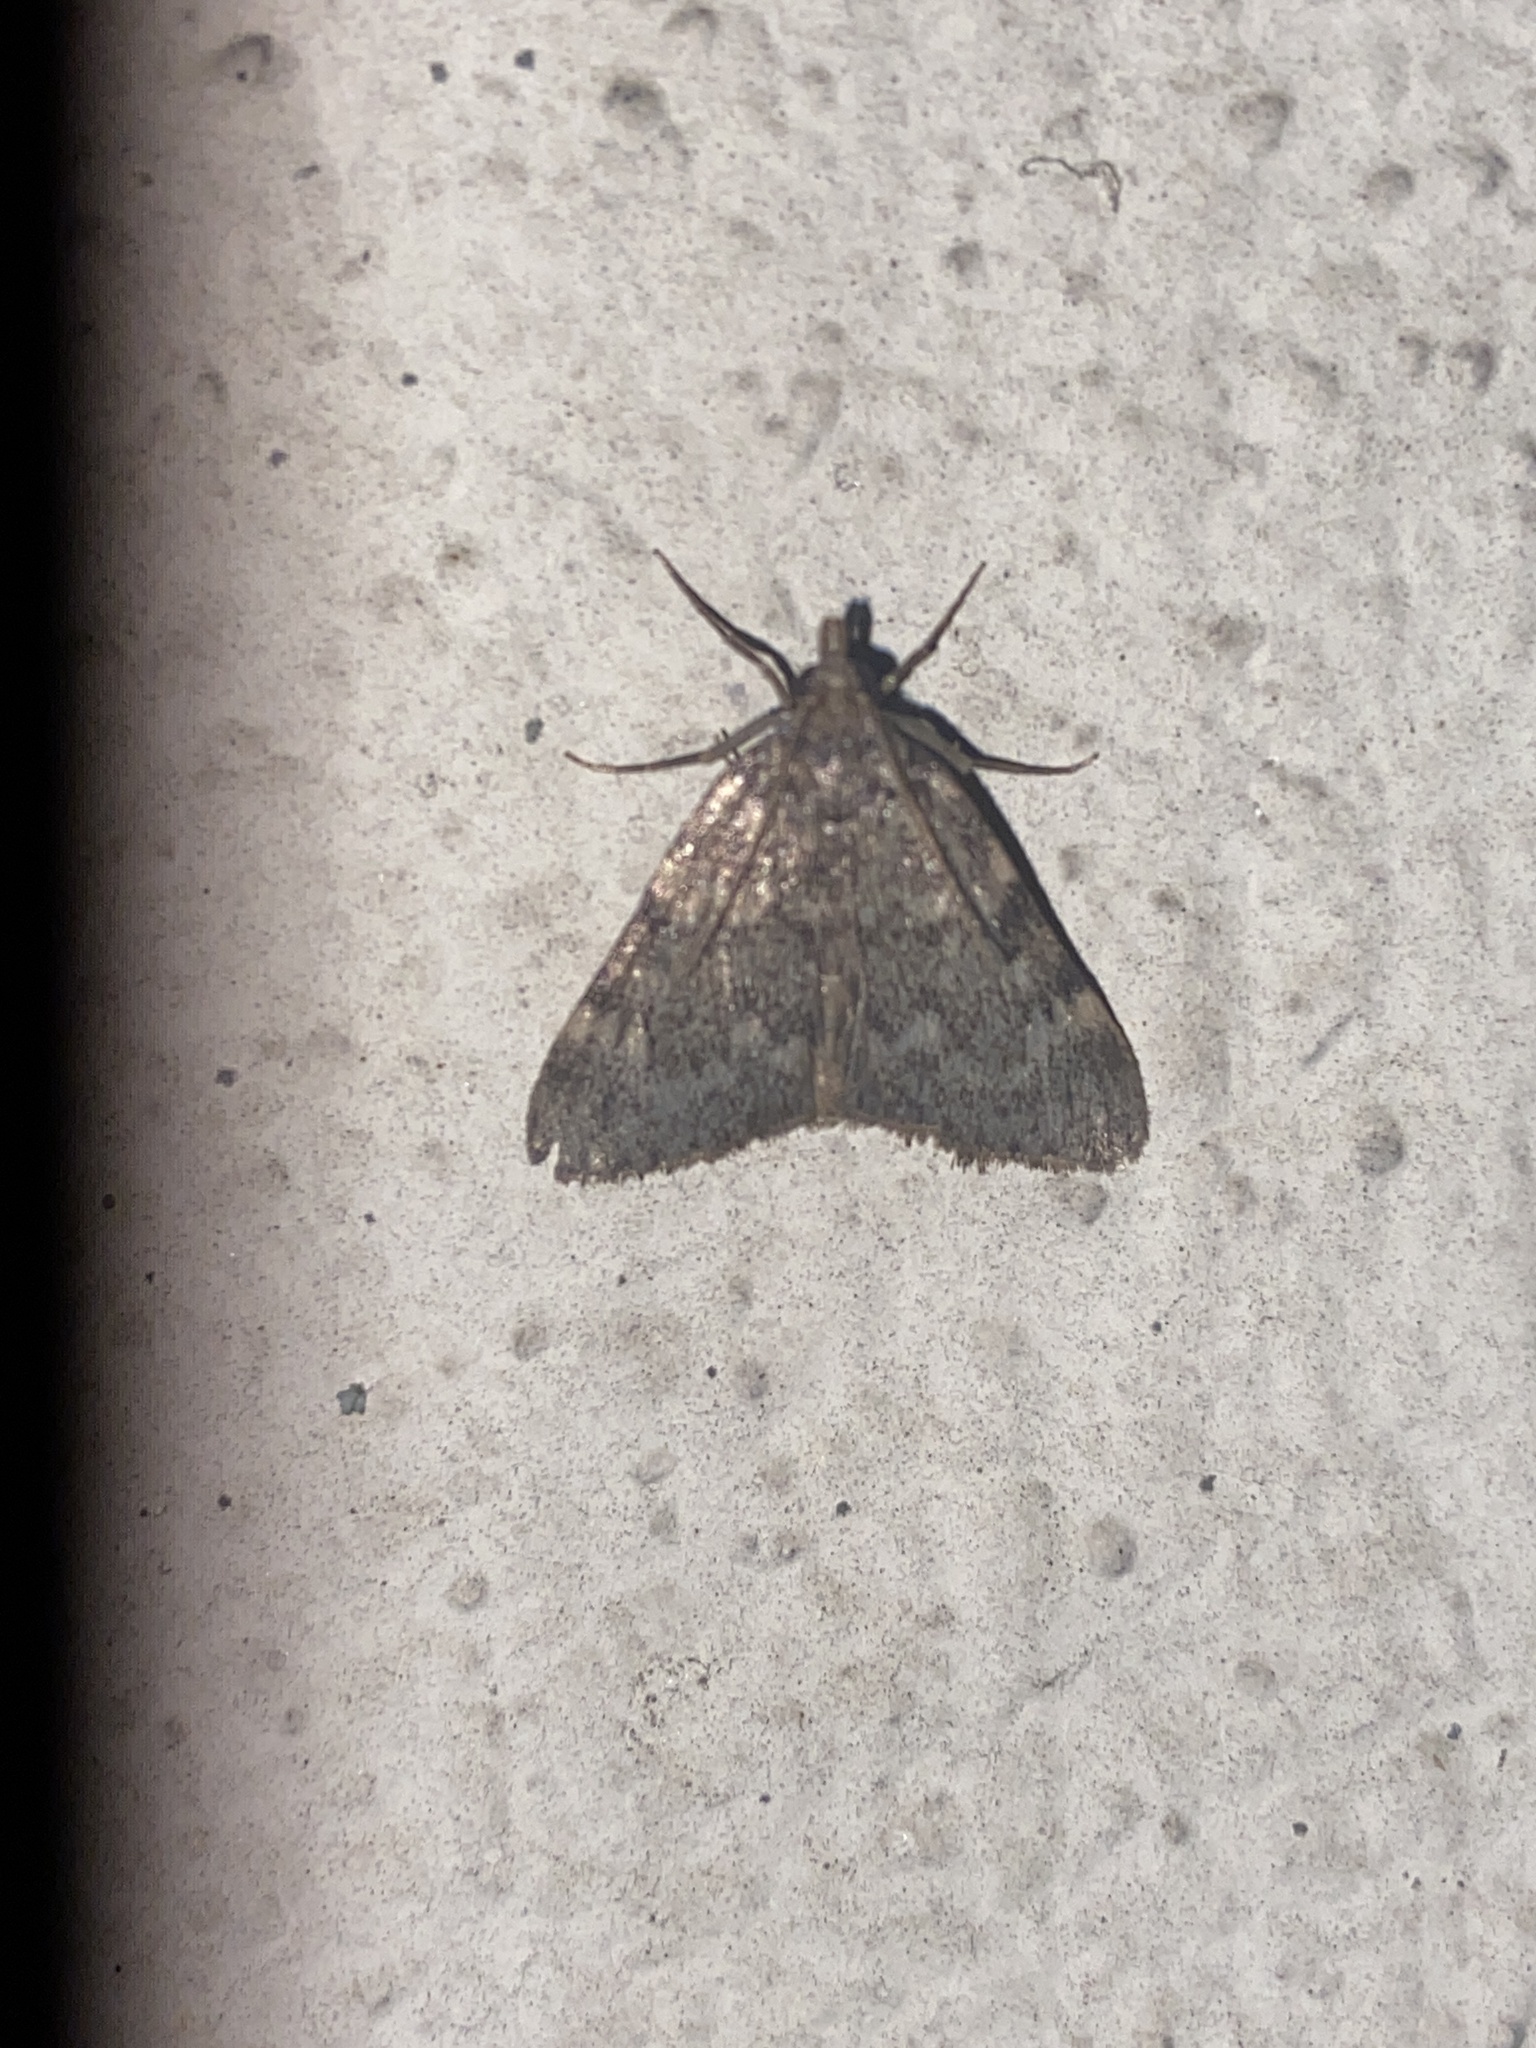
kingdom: Animalia
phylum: Arthropoda
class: Insecta
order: Lepidoptera
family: Pyralidae
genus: Aglossa
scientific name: Aglossa pinguinalis
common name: Large tabby
